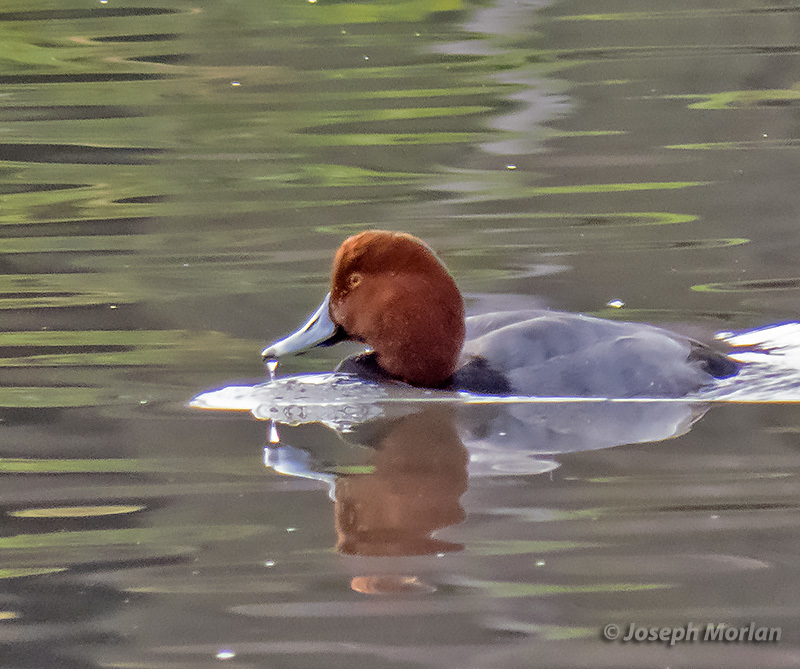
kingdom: Animalia
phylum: Chordata
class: Aves
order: Anseriformes
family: Anatidae
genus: Aythya
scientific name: Aythya americana
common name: Redhead
